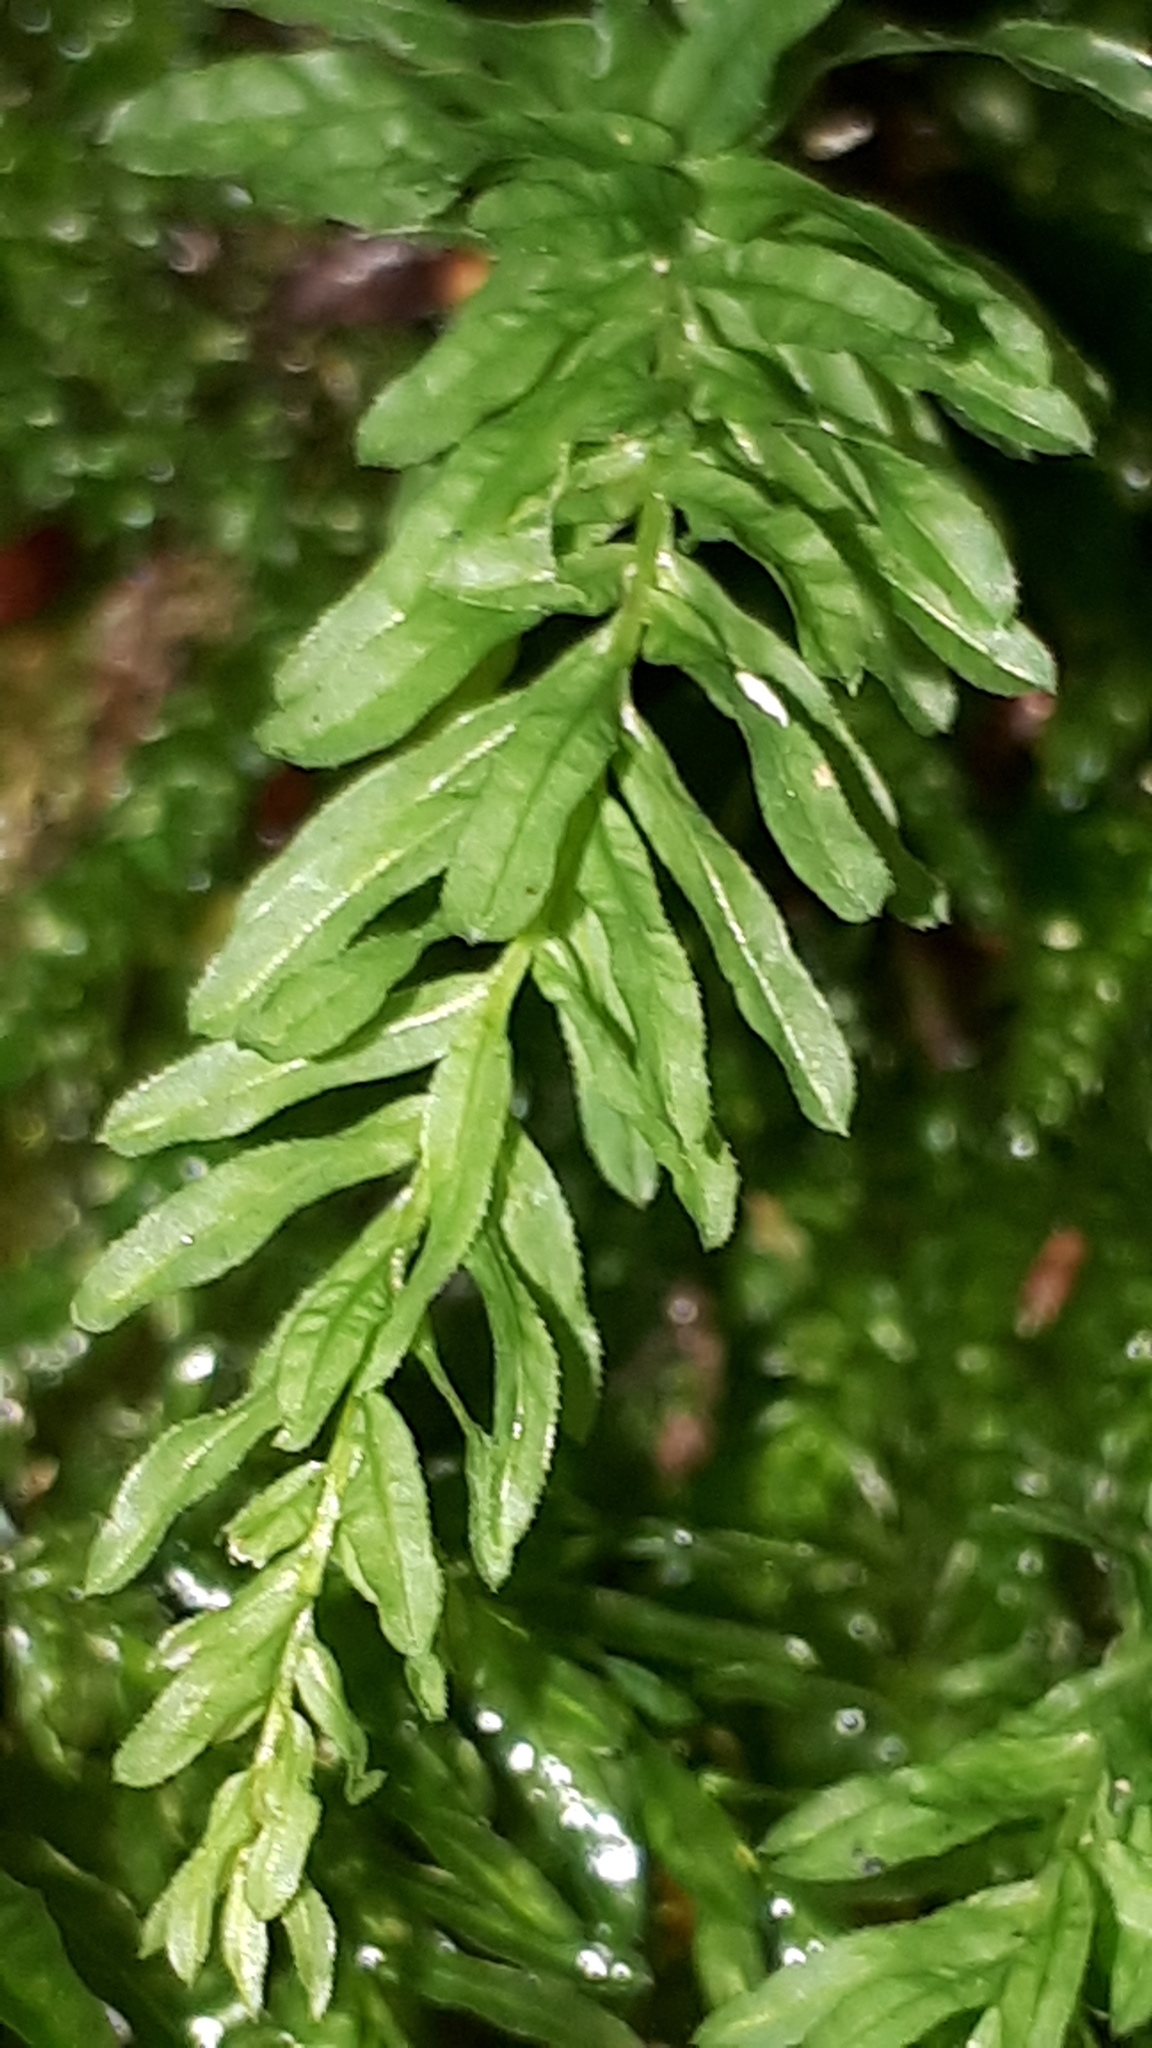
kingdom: Plantae
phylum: Bryophyta
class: Bryopsida
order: Bryales
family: Mniaceae
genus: Plagiomnium
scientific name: Plagiomnium undulatum
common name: Hart's-tongue thyme-moss
